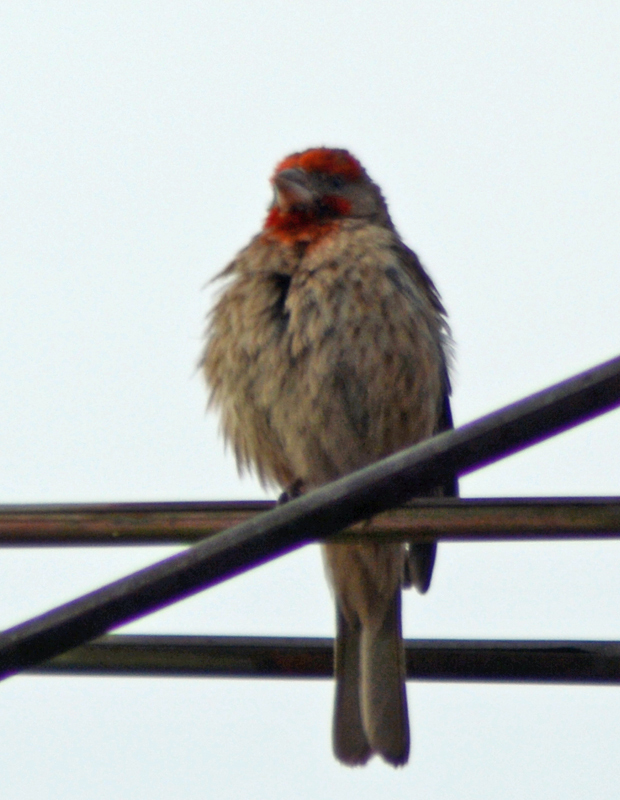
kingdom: Animalia
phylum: Chordata
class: Aves
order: Passeriformes
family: Fringillidae
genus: Haemorhous
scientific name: Haemorhous mexicanus
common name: House finch
